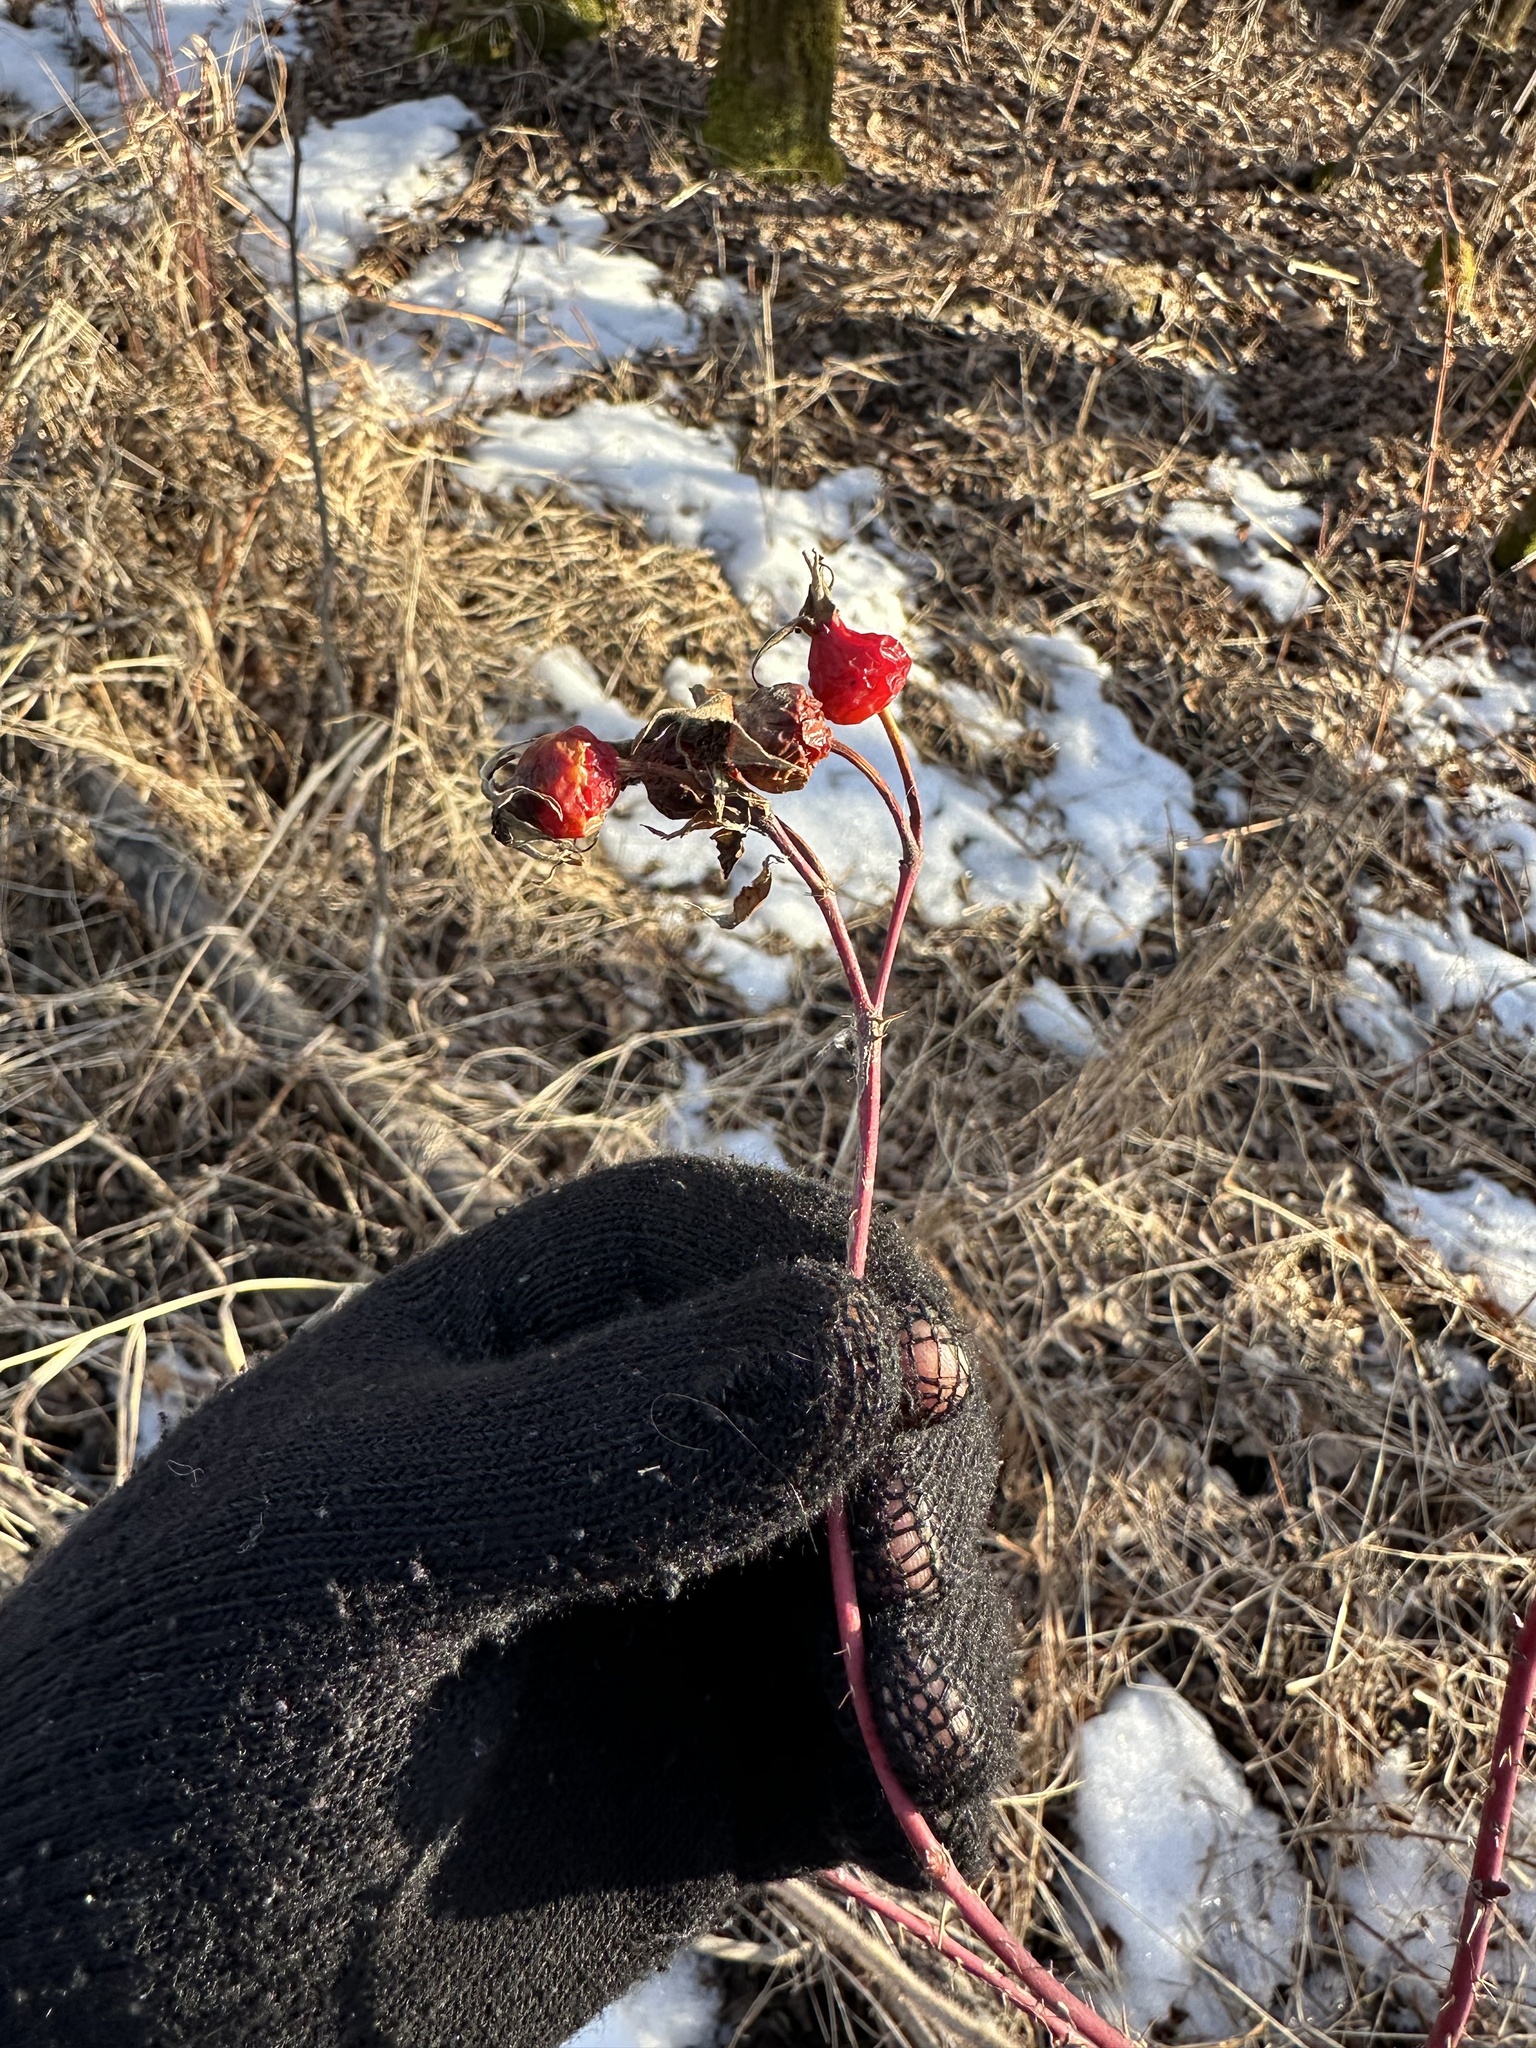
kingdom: Plantae
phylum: Tracheophyta
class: Magnoliopsida
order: Rosales
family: Rosaceae
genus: Rosa
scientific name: Rosa woodsii
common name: Woods's rose
